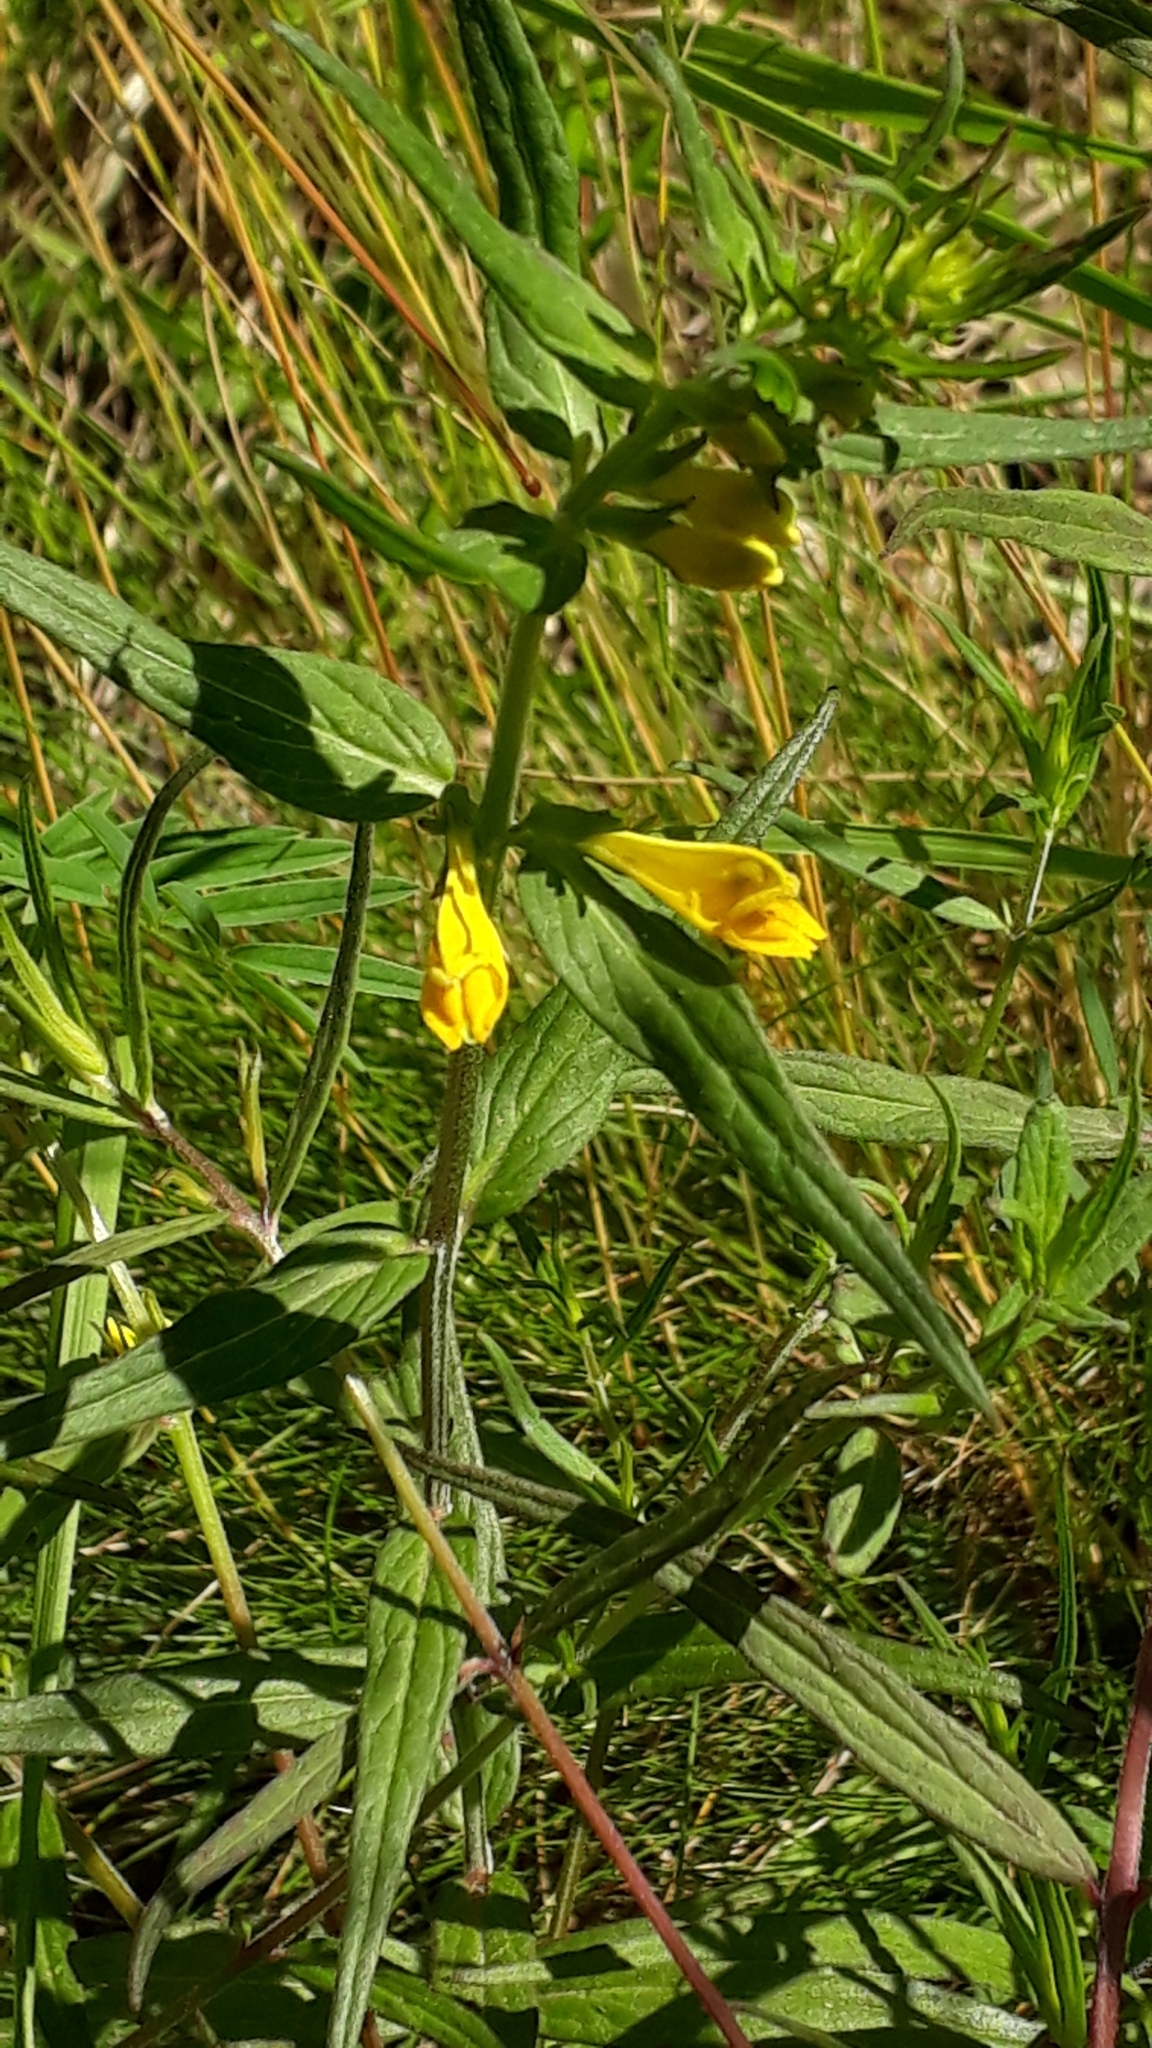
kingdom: Plantae
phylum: Tracheophyta
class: Magnoliopsida
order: Lamiales
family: Orobanchaceae
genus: Melampyrum
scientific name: Melampyrum pratense
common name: Common cow-wheat
